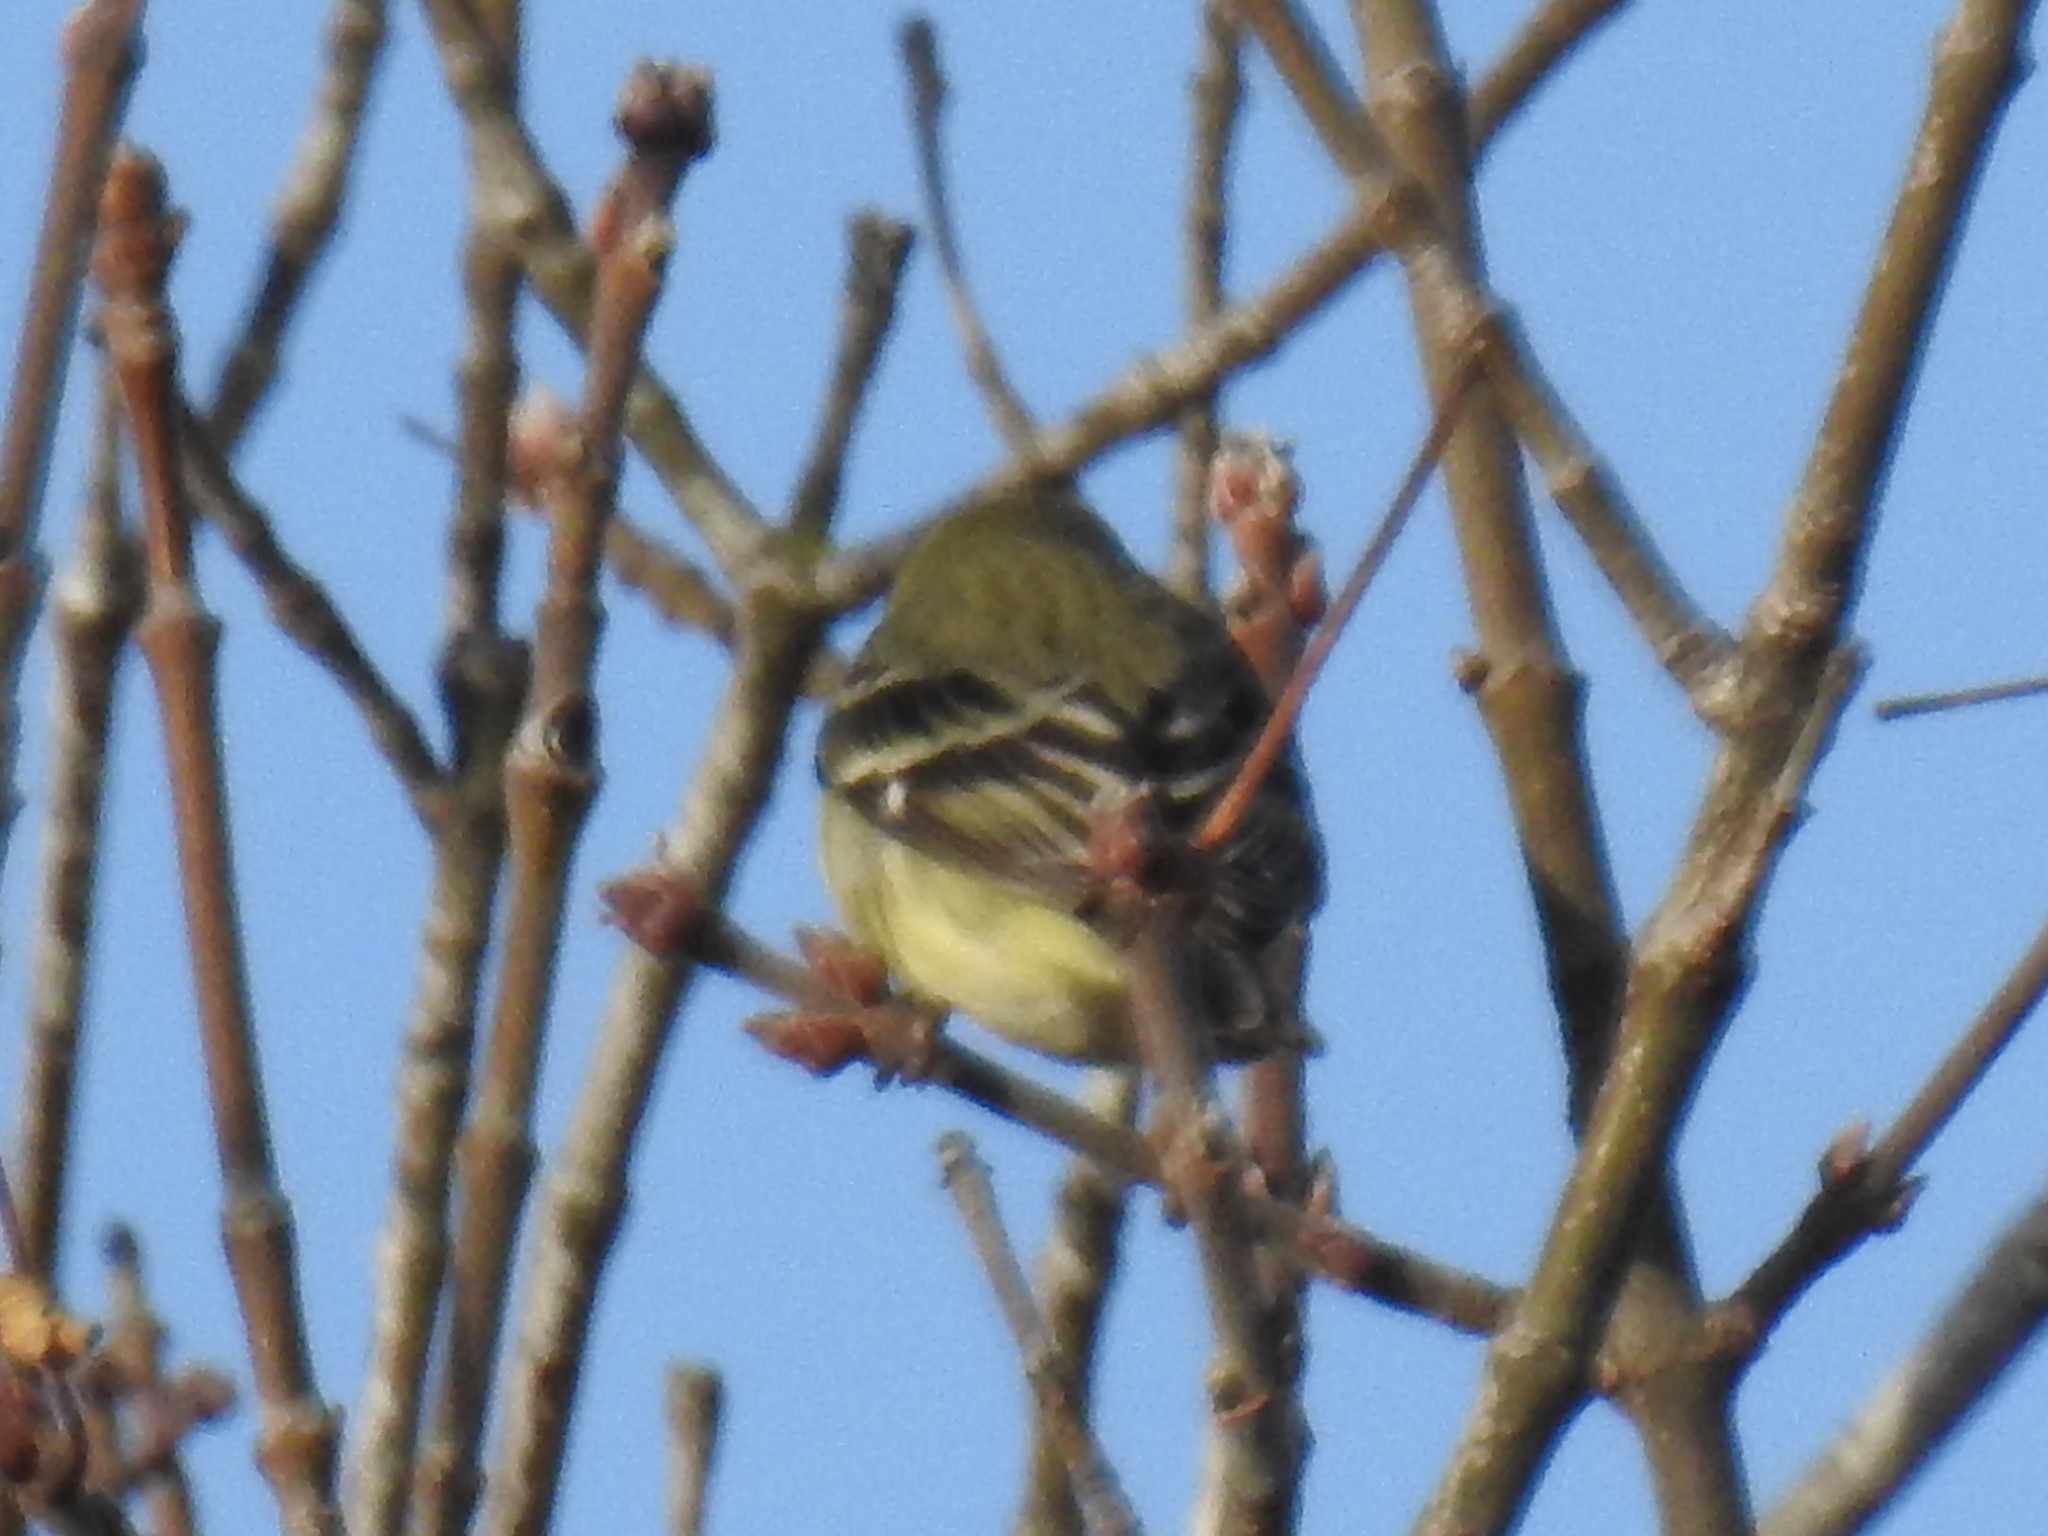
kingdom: Animalia
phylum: Chordata
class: Aves
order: Passeriformes
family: Fringillidae
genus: Spinus
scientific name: Spinus psaltria
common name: Lesser goldfinch
